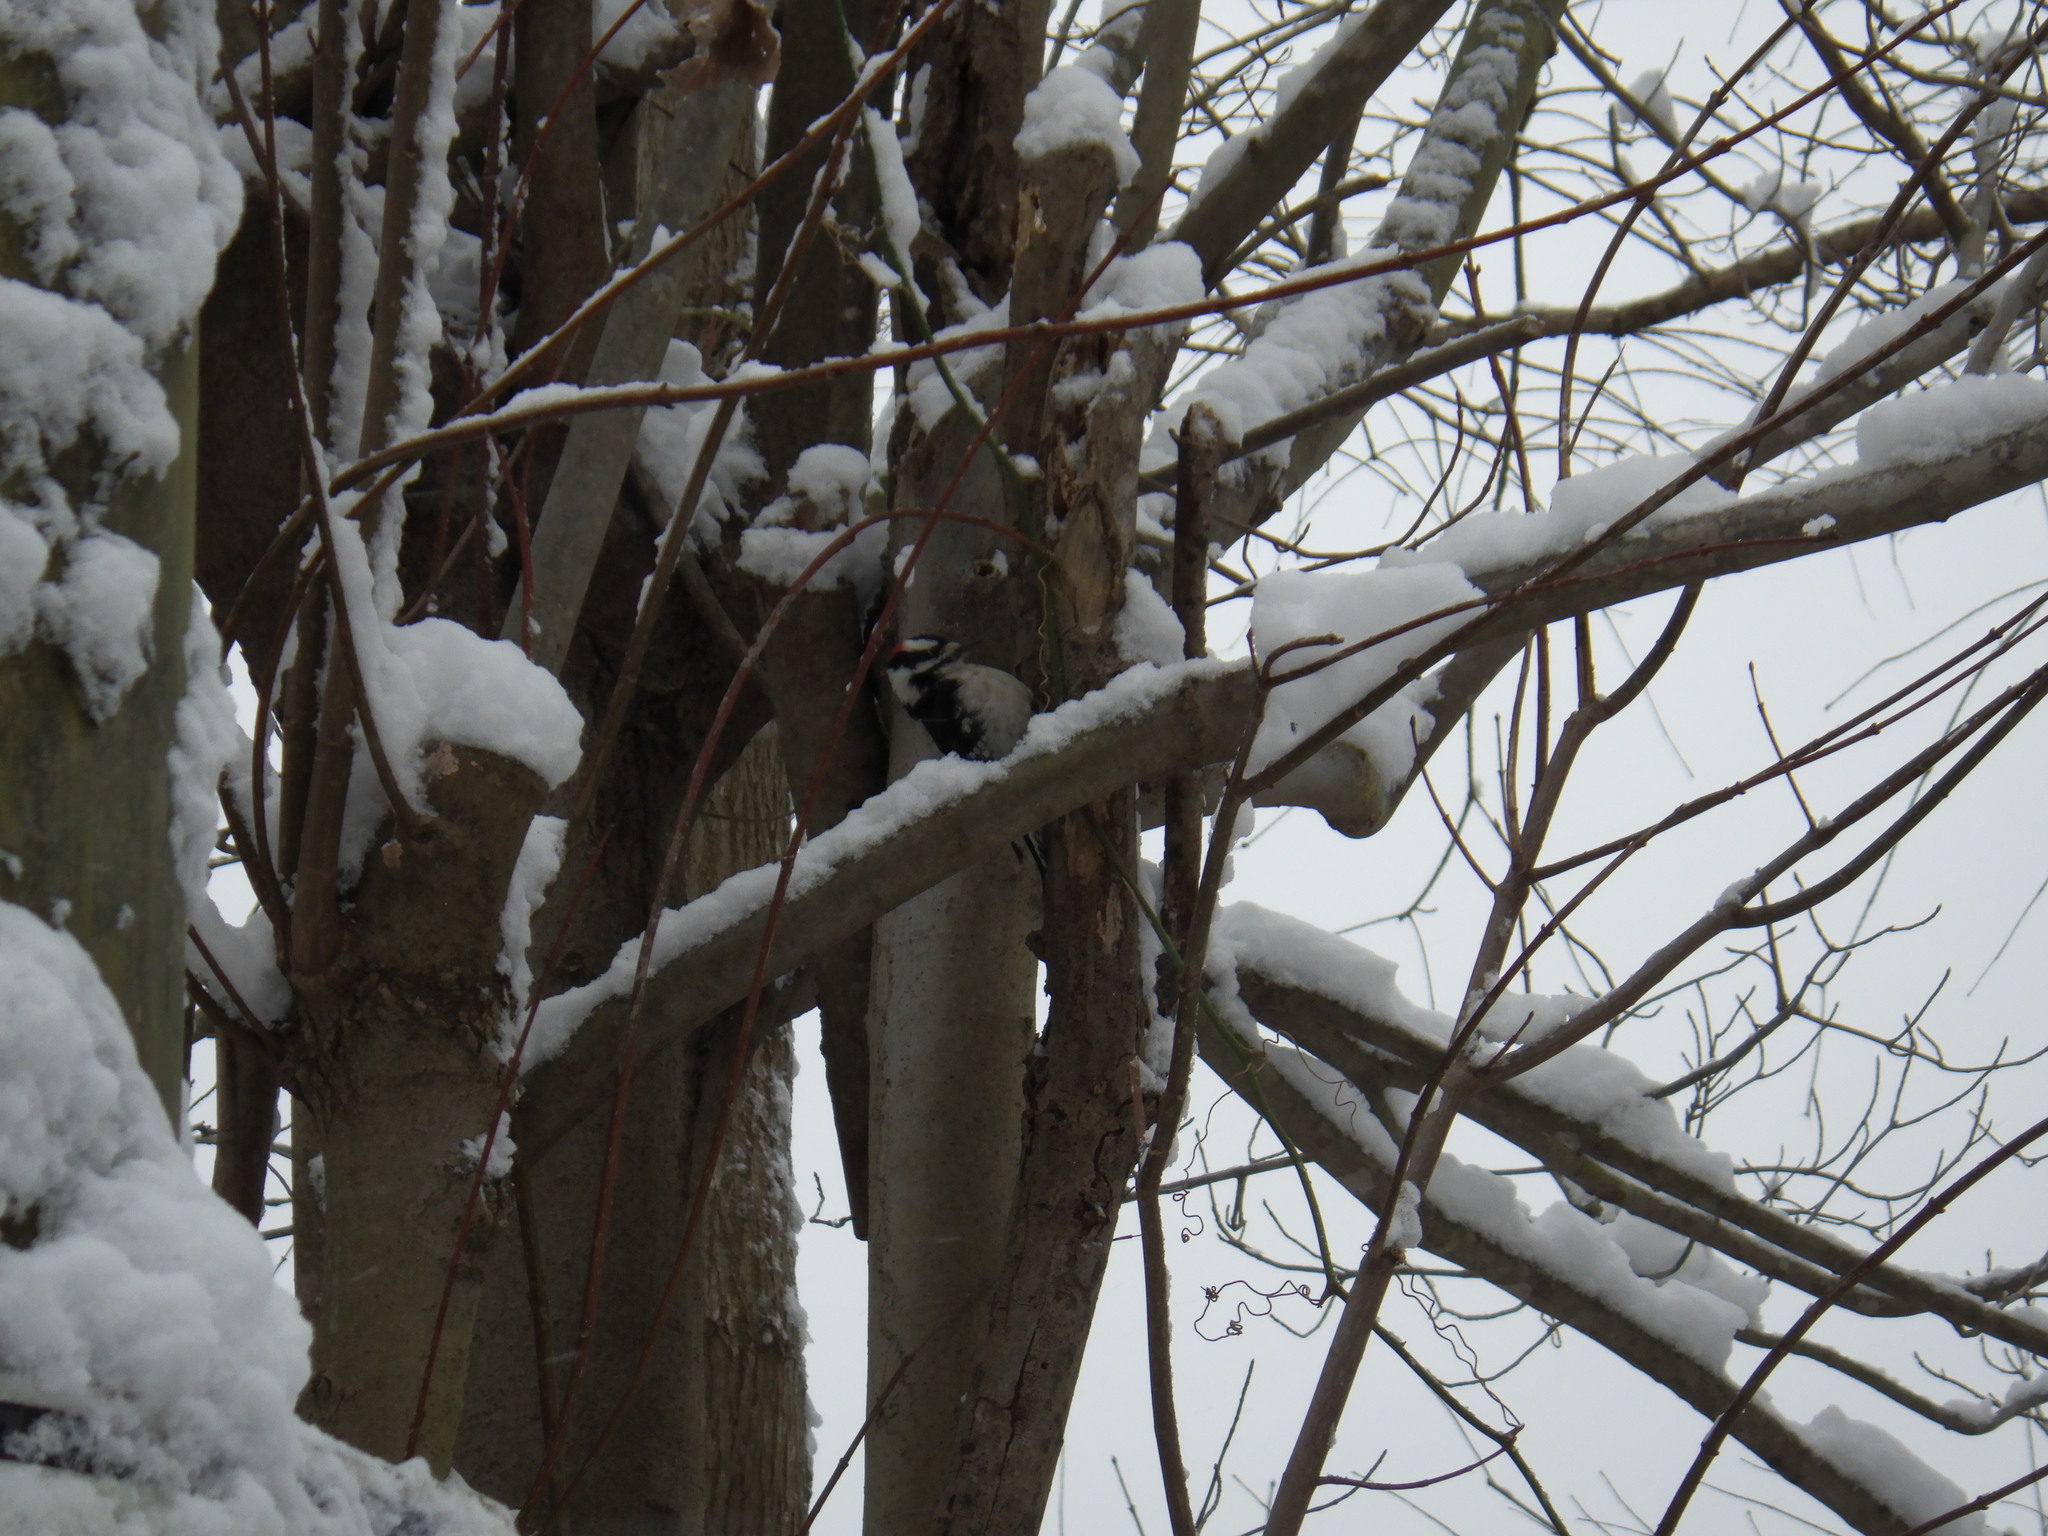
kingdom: Animalia
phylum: Chordata
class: Aves
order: Piciformes
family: Picidae
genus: Dryobates
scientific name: Dryobates pubescens
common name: Downy woodpecker
